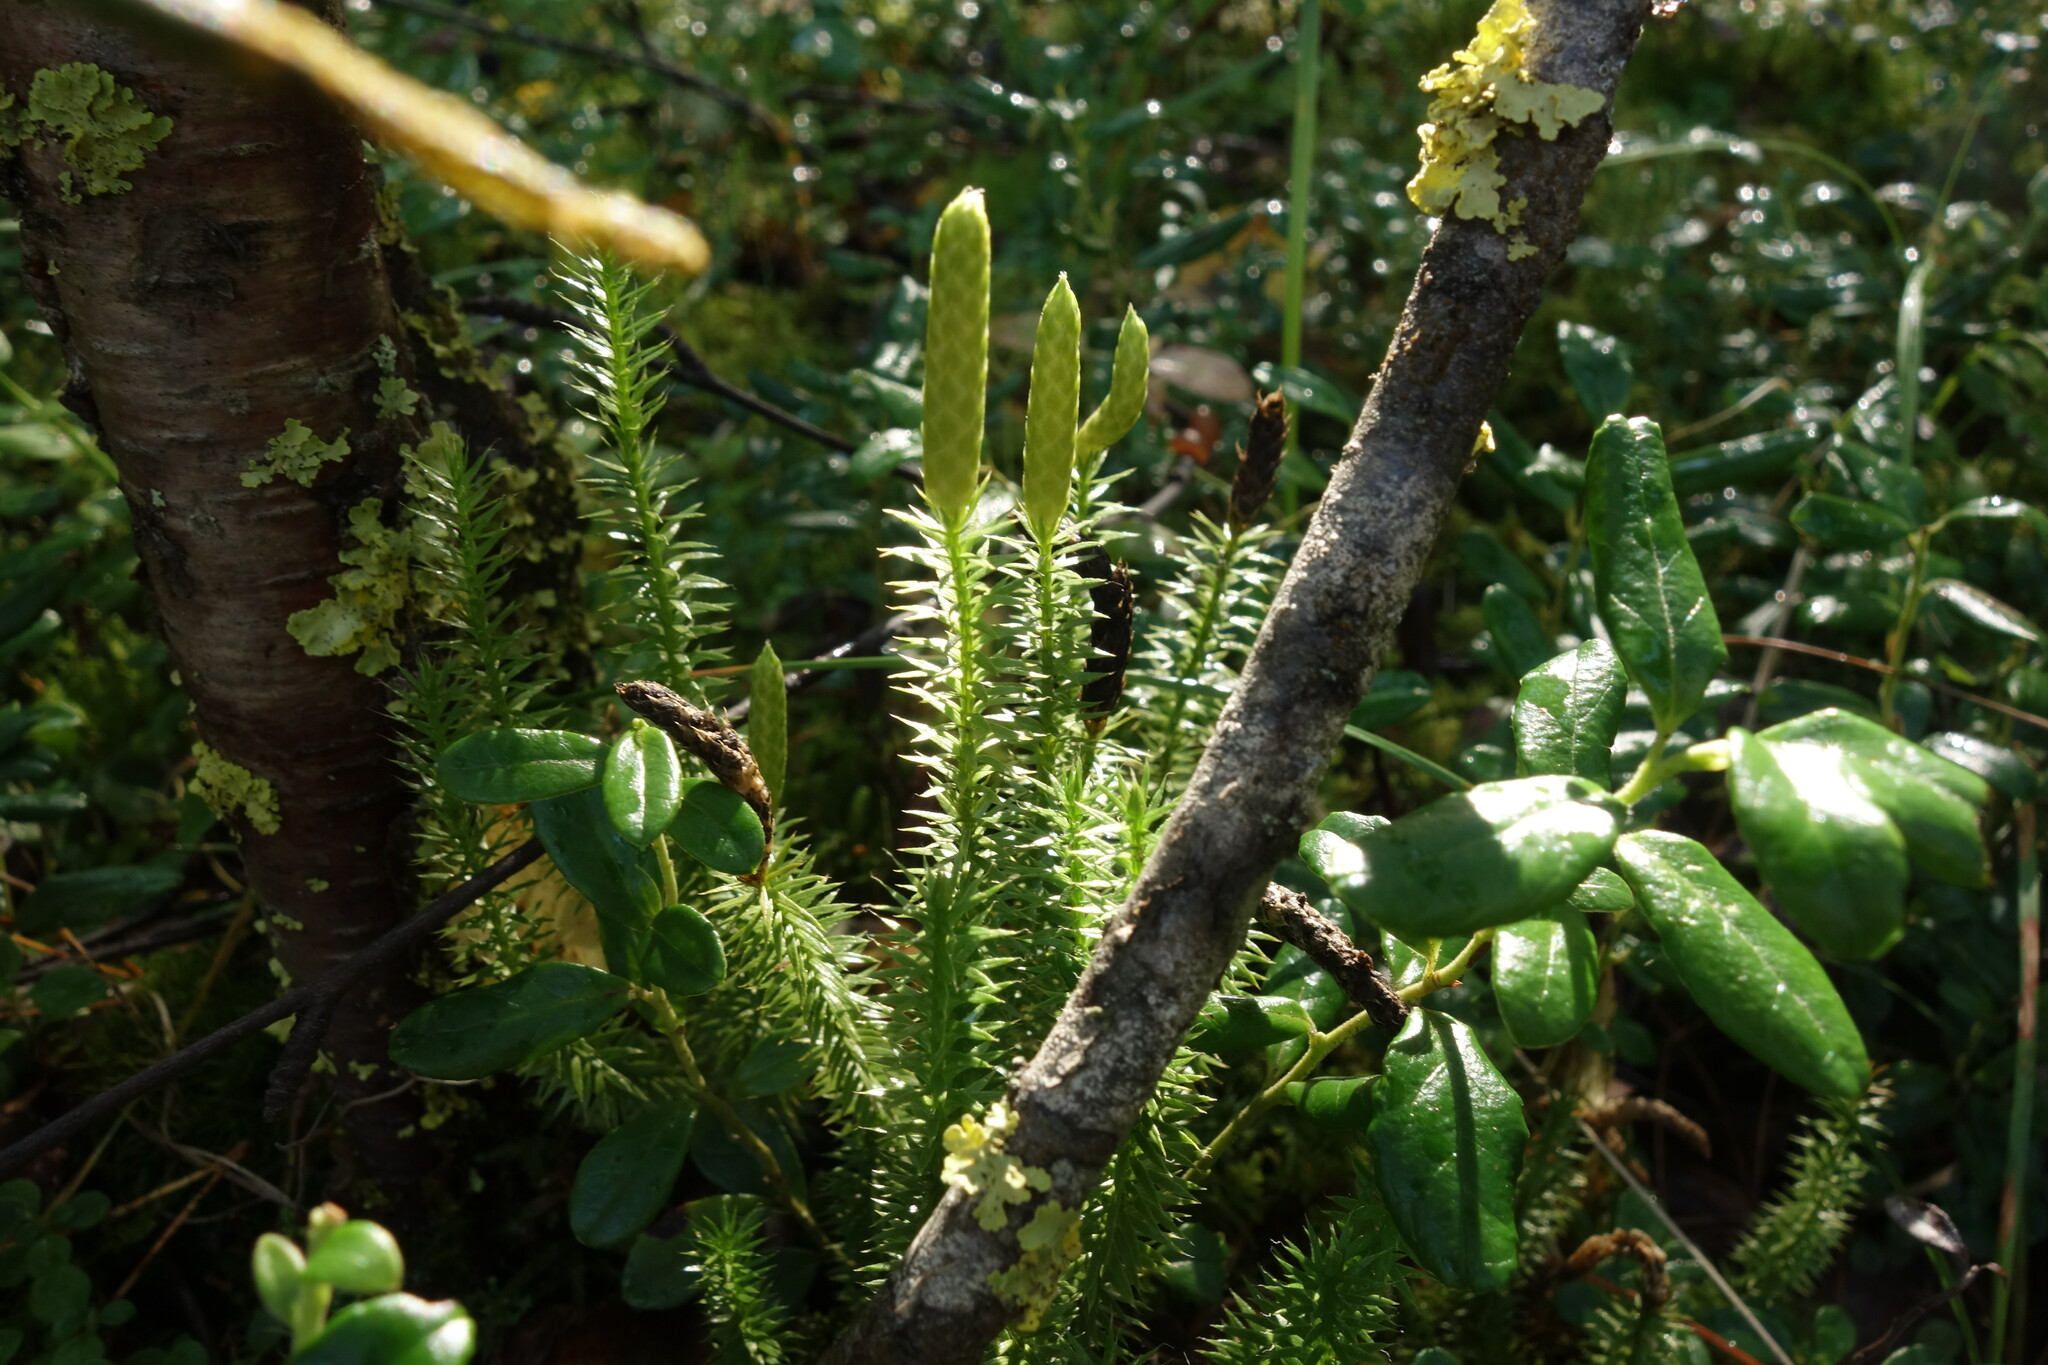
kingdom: Plantae
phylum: Tracheophyta
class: Lycopodiopsida
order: Lycopodiales
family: Lycopodiaceae
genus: Spinulum
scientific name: Spinulum annotinum
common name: Interrupted club-moss
